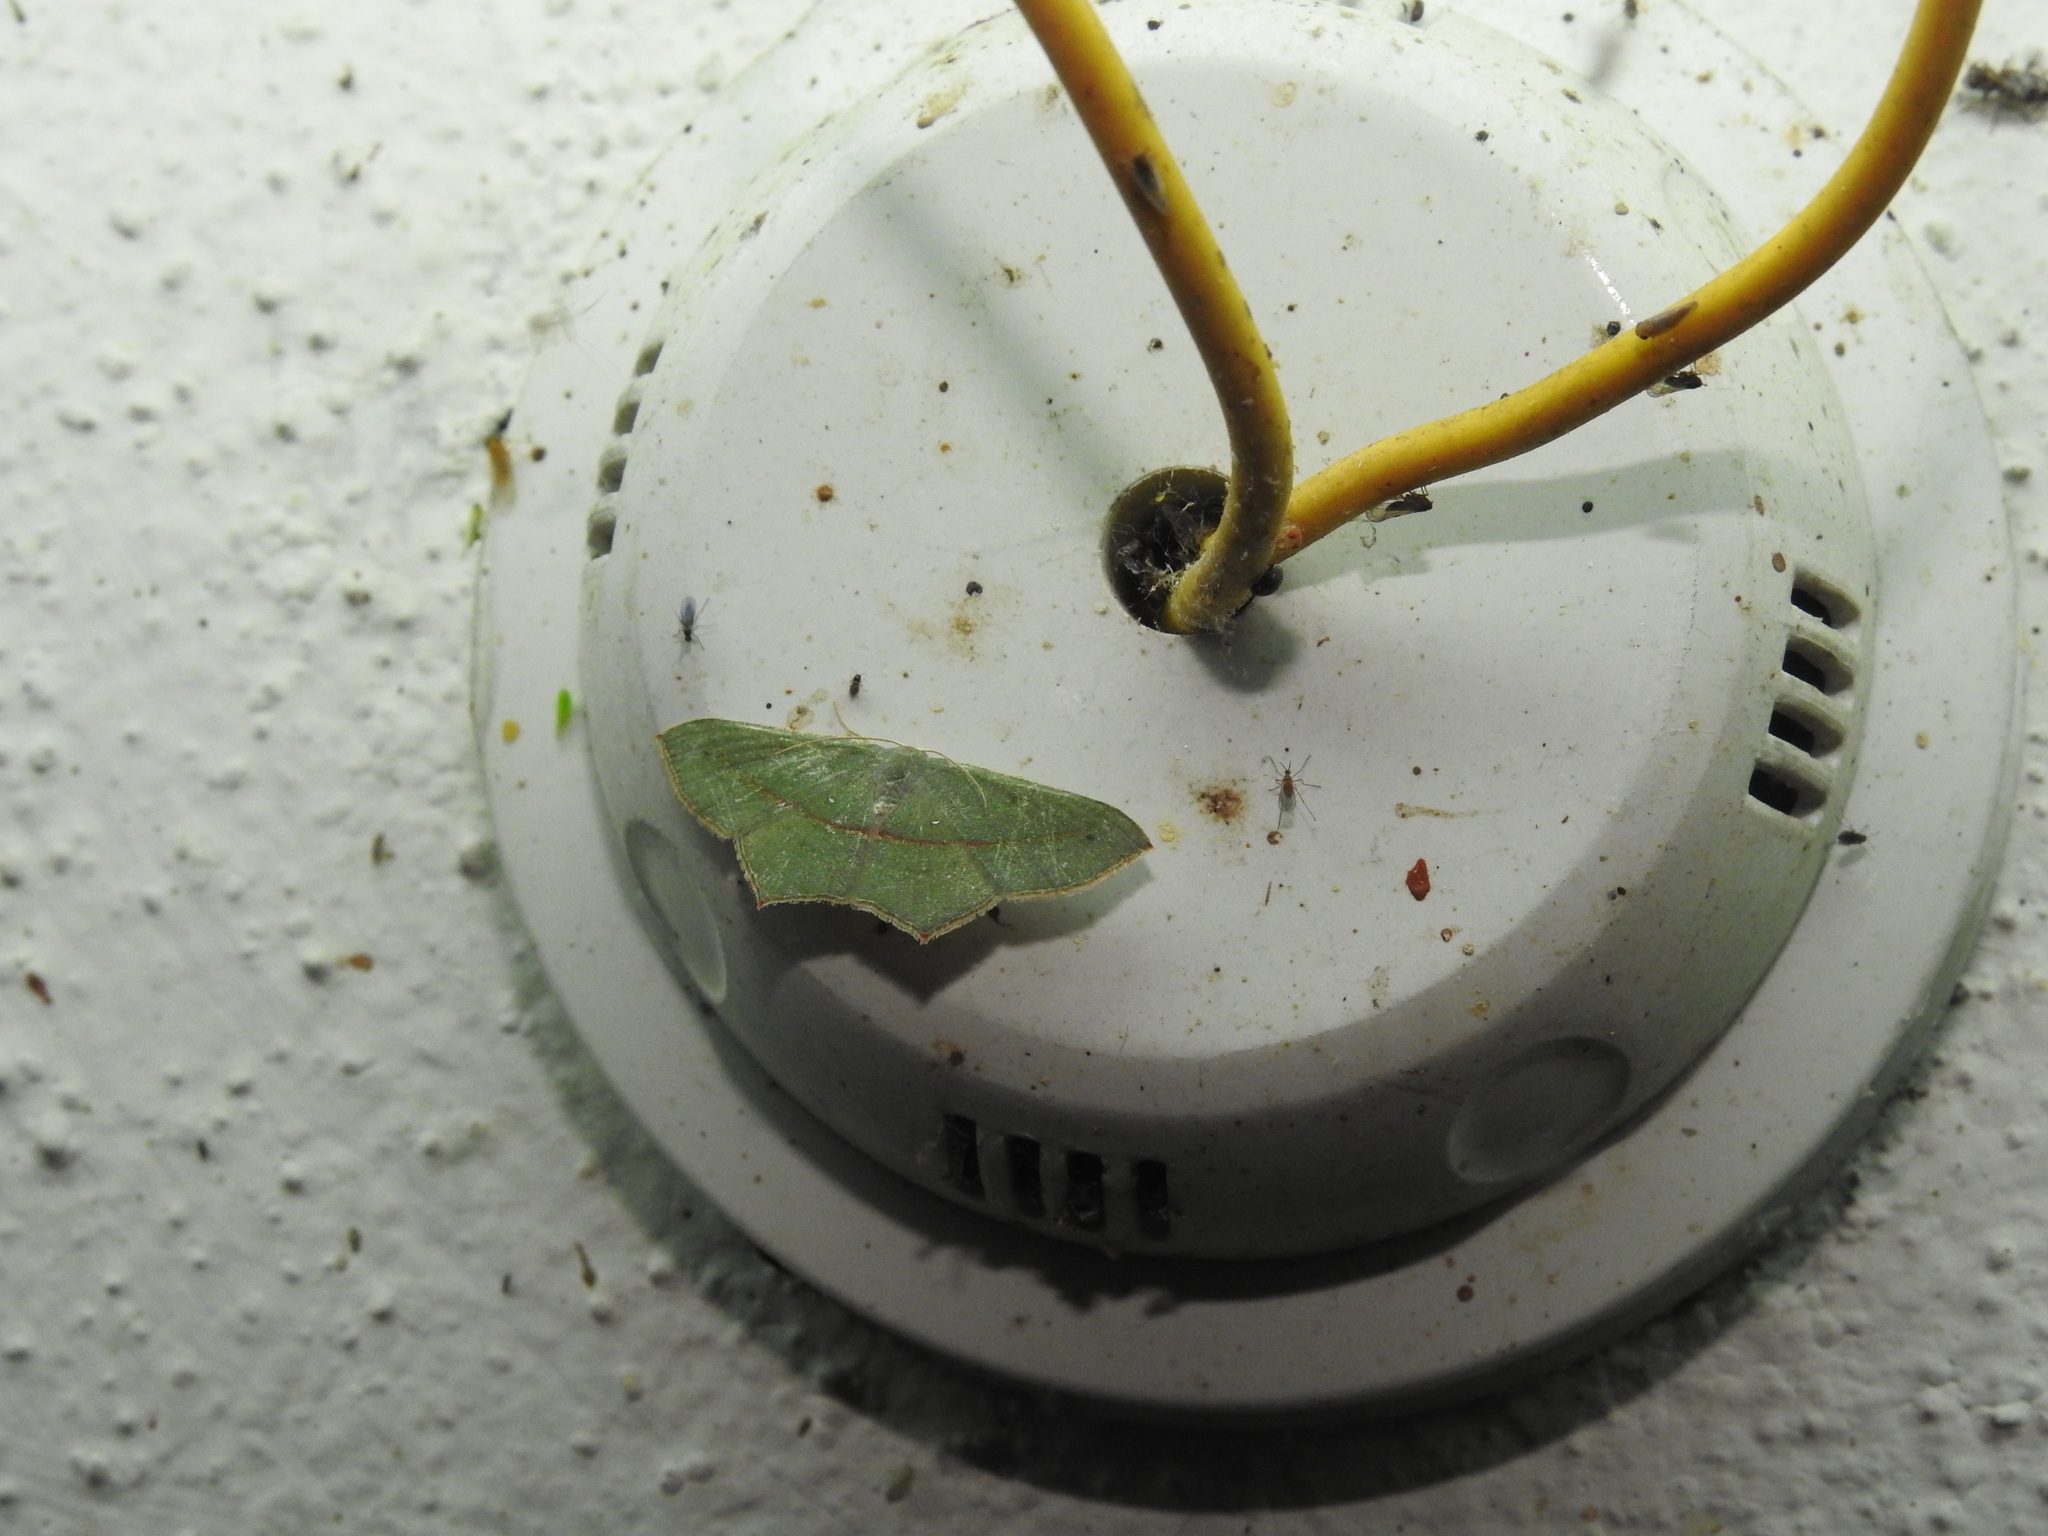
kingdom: Animalia
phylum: Arthropoda
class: Insecta
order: Lepidoptera
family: Geometridae
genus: Traminda
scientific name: Traminda mundissima
